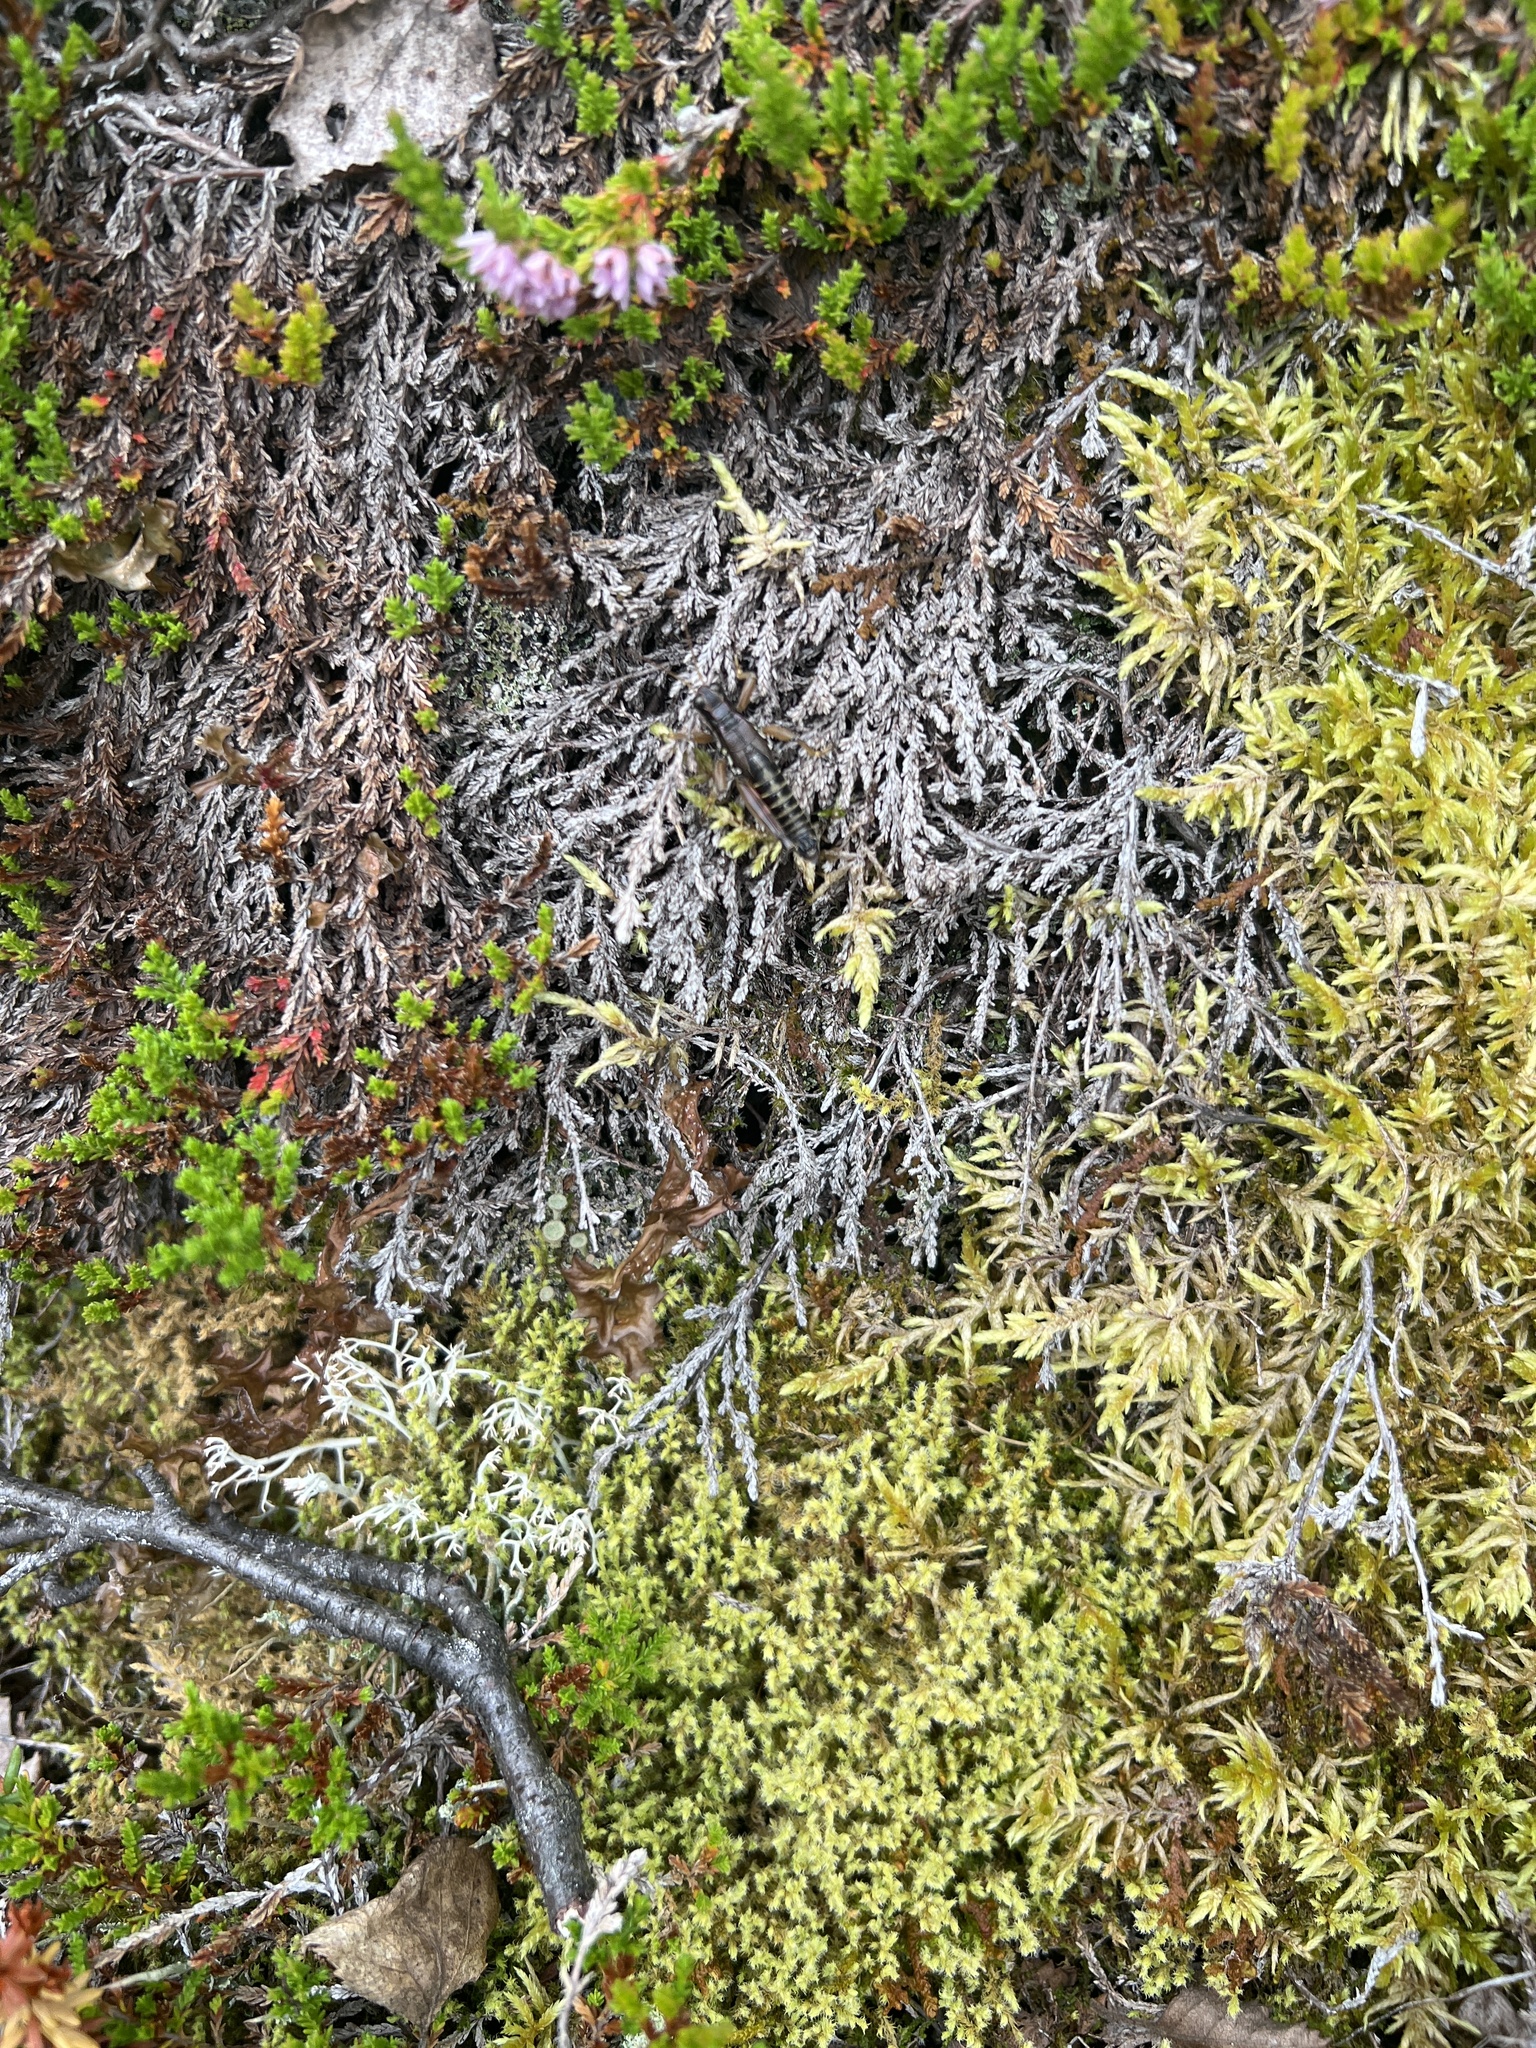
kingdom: Animalia
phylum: Arthropoda
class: Insecta
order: Orthoptera
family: Acrididae
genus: Podisma
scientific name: Podisma pedestris
